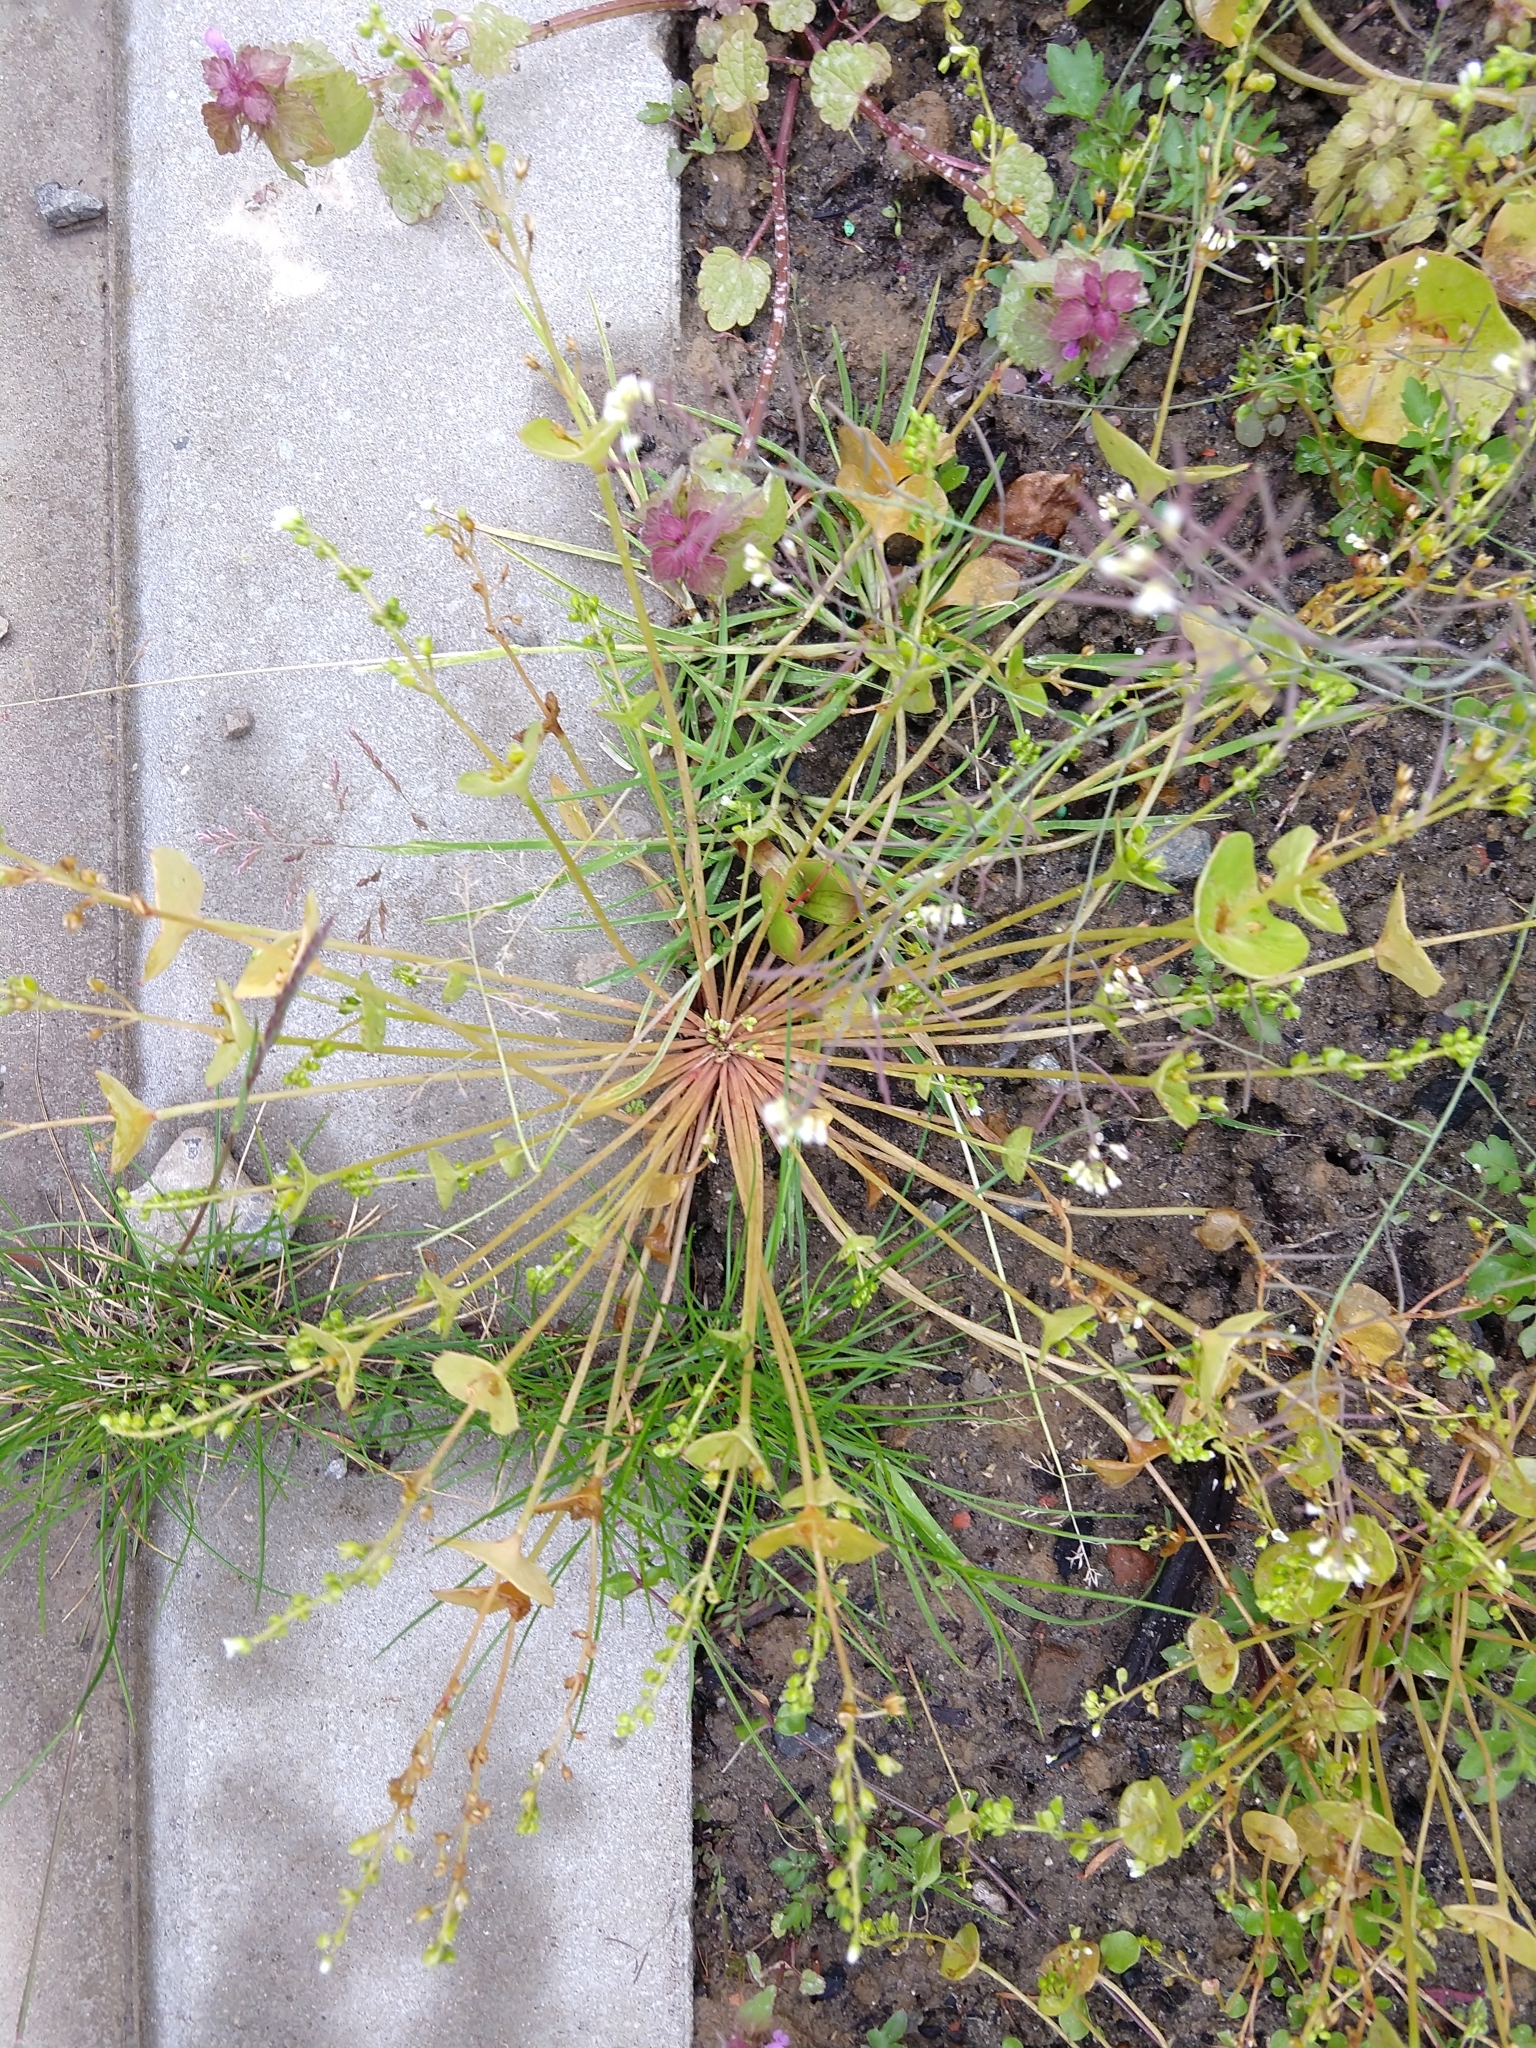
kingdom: Plantae
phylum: Tracheophyta
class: Magnoliopsida
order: Caryophyllales
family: Montiaceae
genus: Claytonia
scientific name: Claytonia perfoliata
